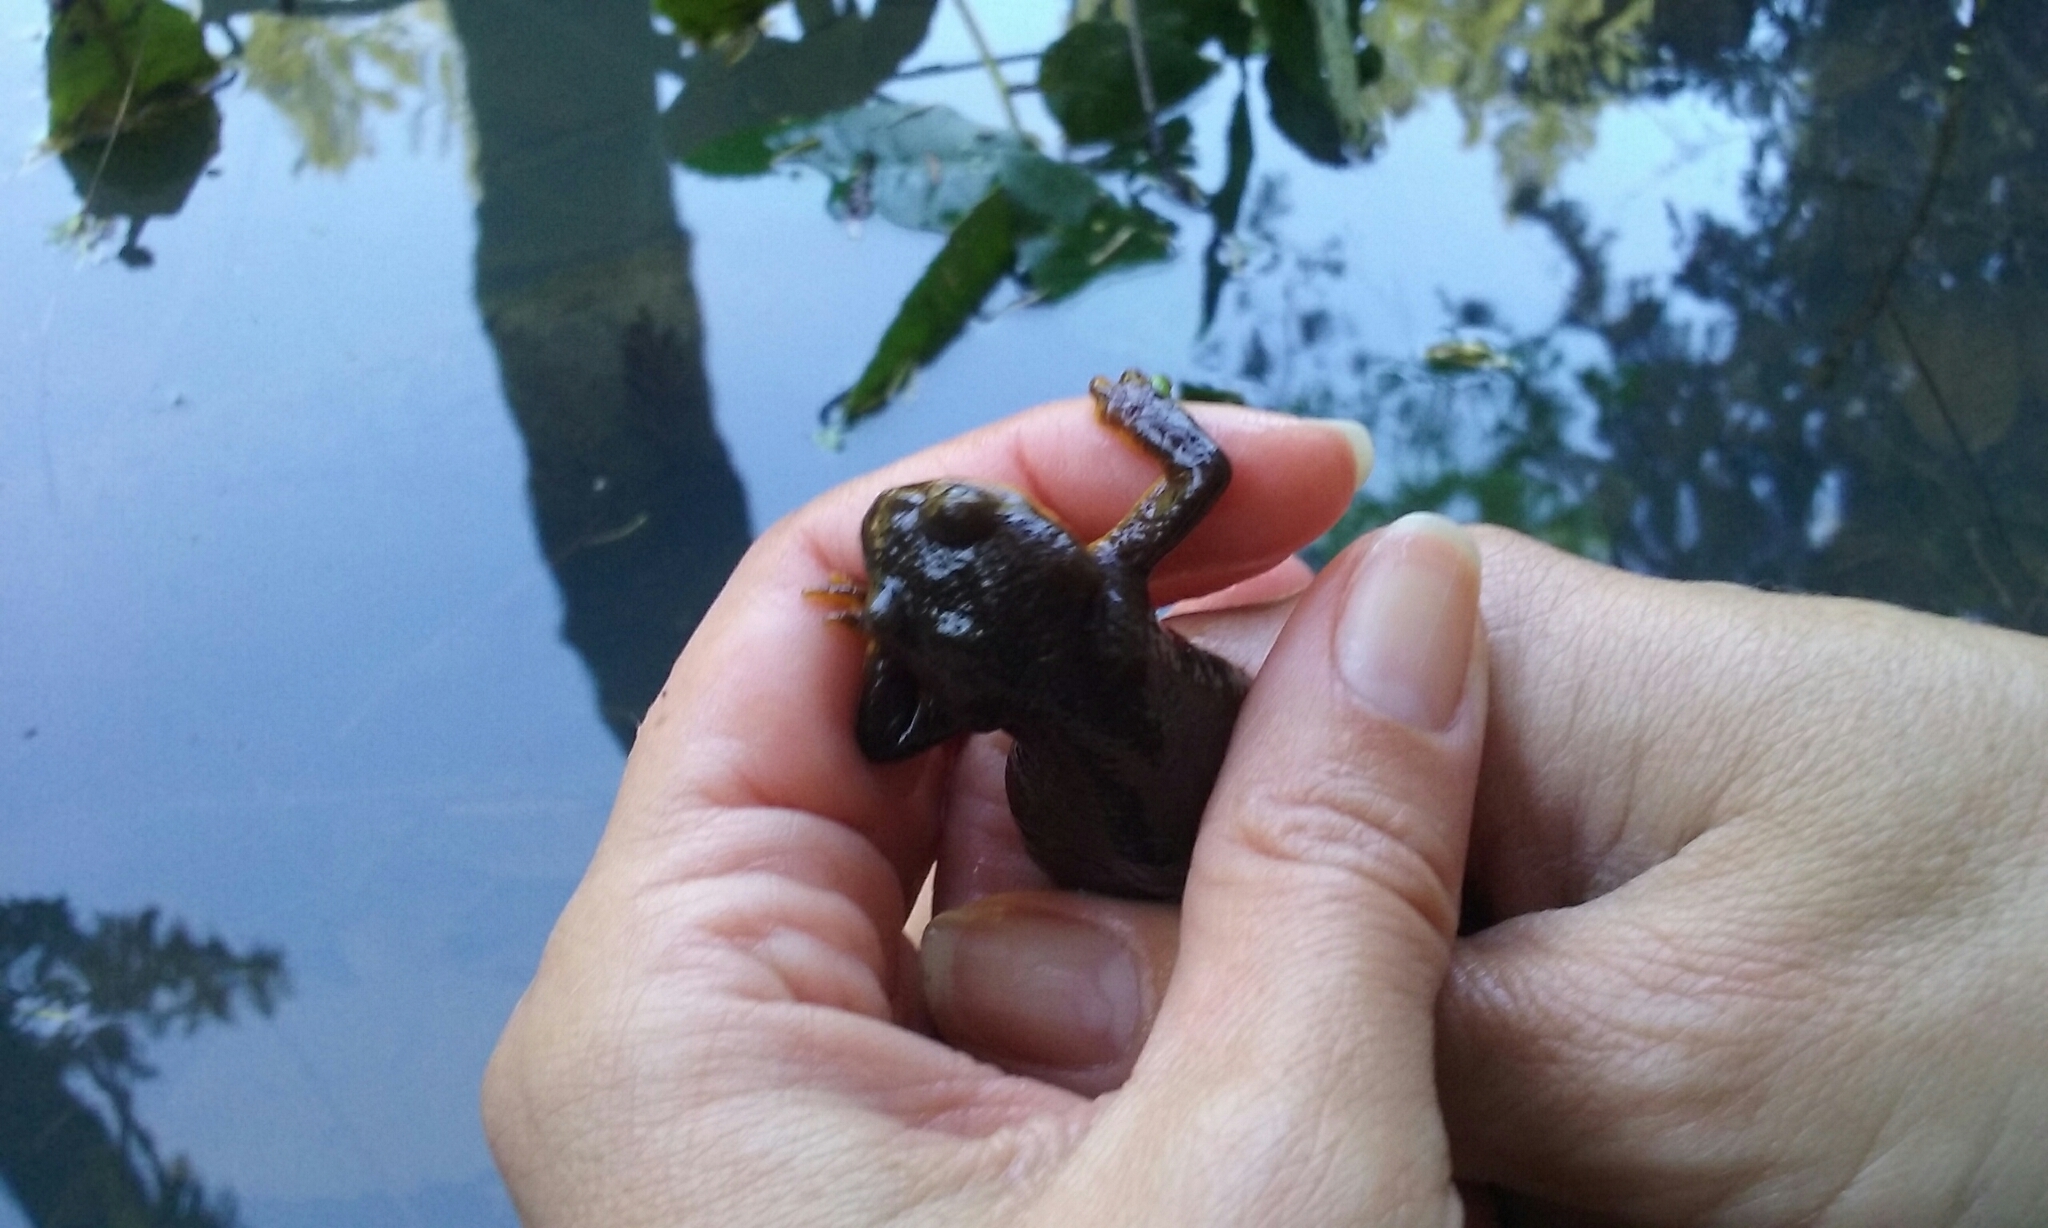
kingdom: Animalia
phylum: Chordata
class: Amphibia
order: Caudata
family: Salamandridae
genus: Taricha
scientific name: Taricha granulosa
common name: Roughskin newt
